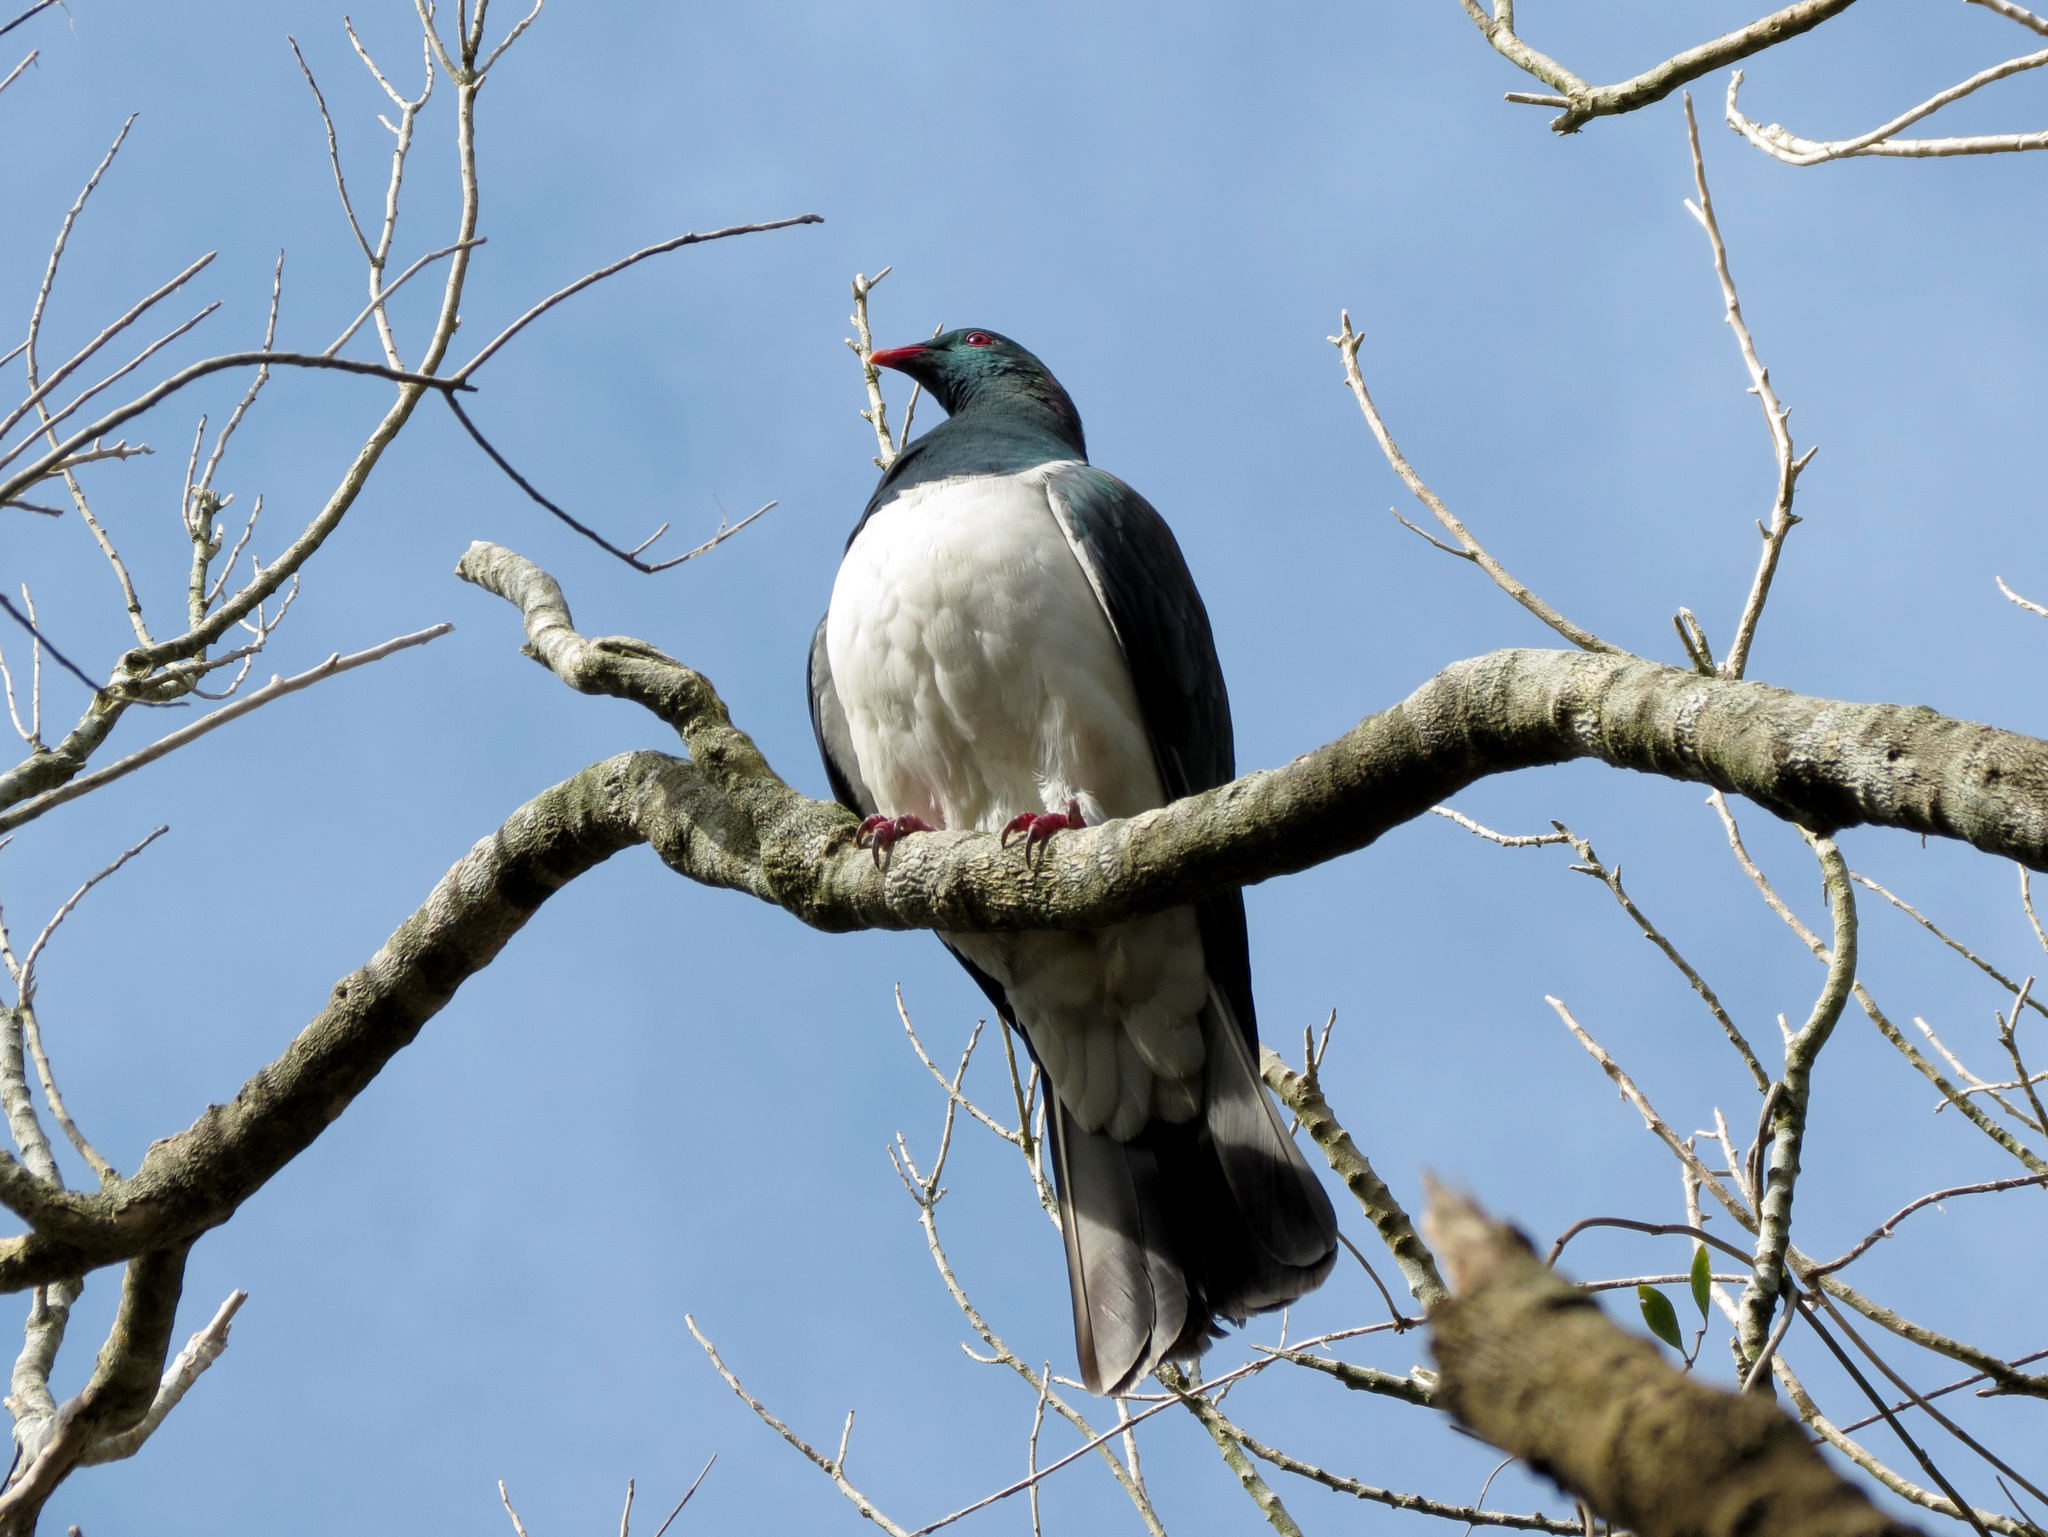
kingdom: Animalia
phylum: Chordata
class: Aves
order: Columbiformes
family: Columbidae
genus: Hemiphaga
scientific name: Hemiphaga novaeseelandiae
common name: New zealand pigeon
